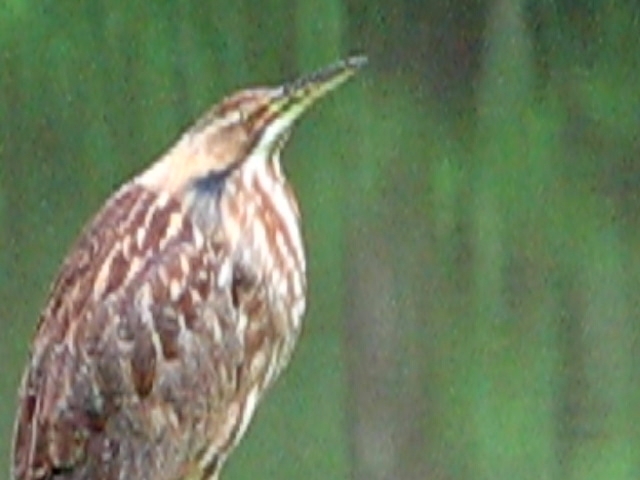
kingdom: Animalia
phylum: Chordata
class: Aves
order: Pelecaniformes
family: Ardeidae
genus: Botaurus
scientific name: Botaurus lentiginosus
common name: American bittern
